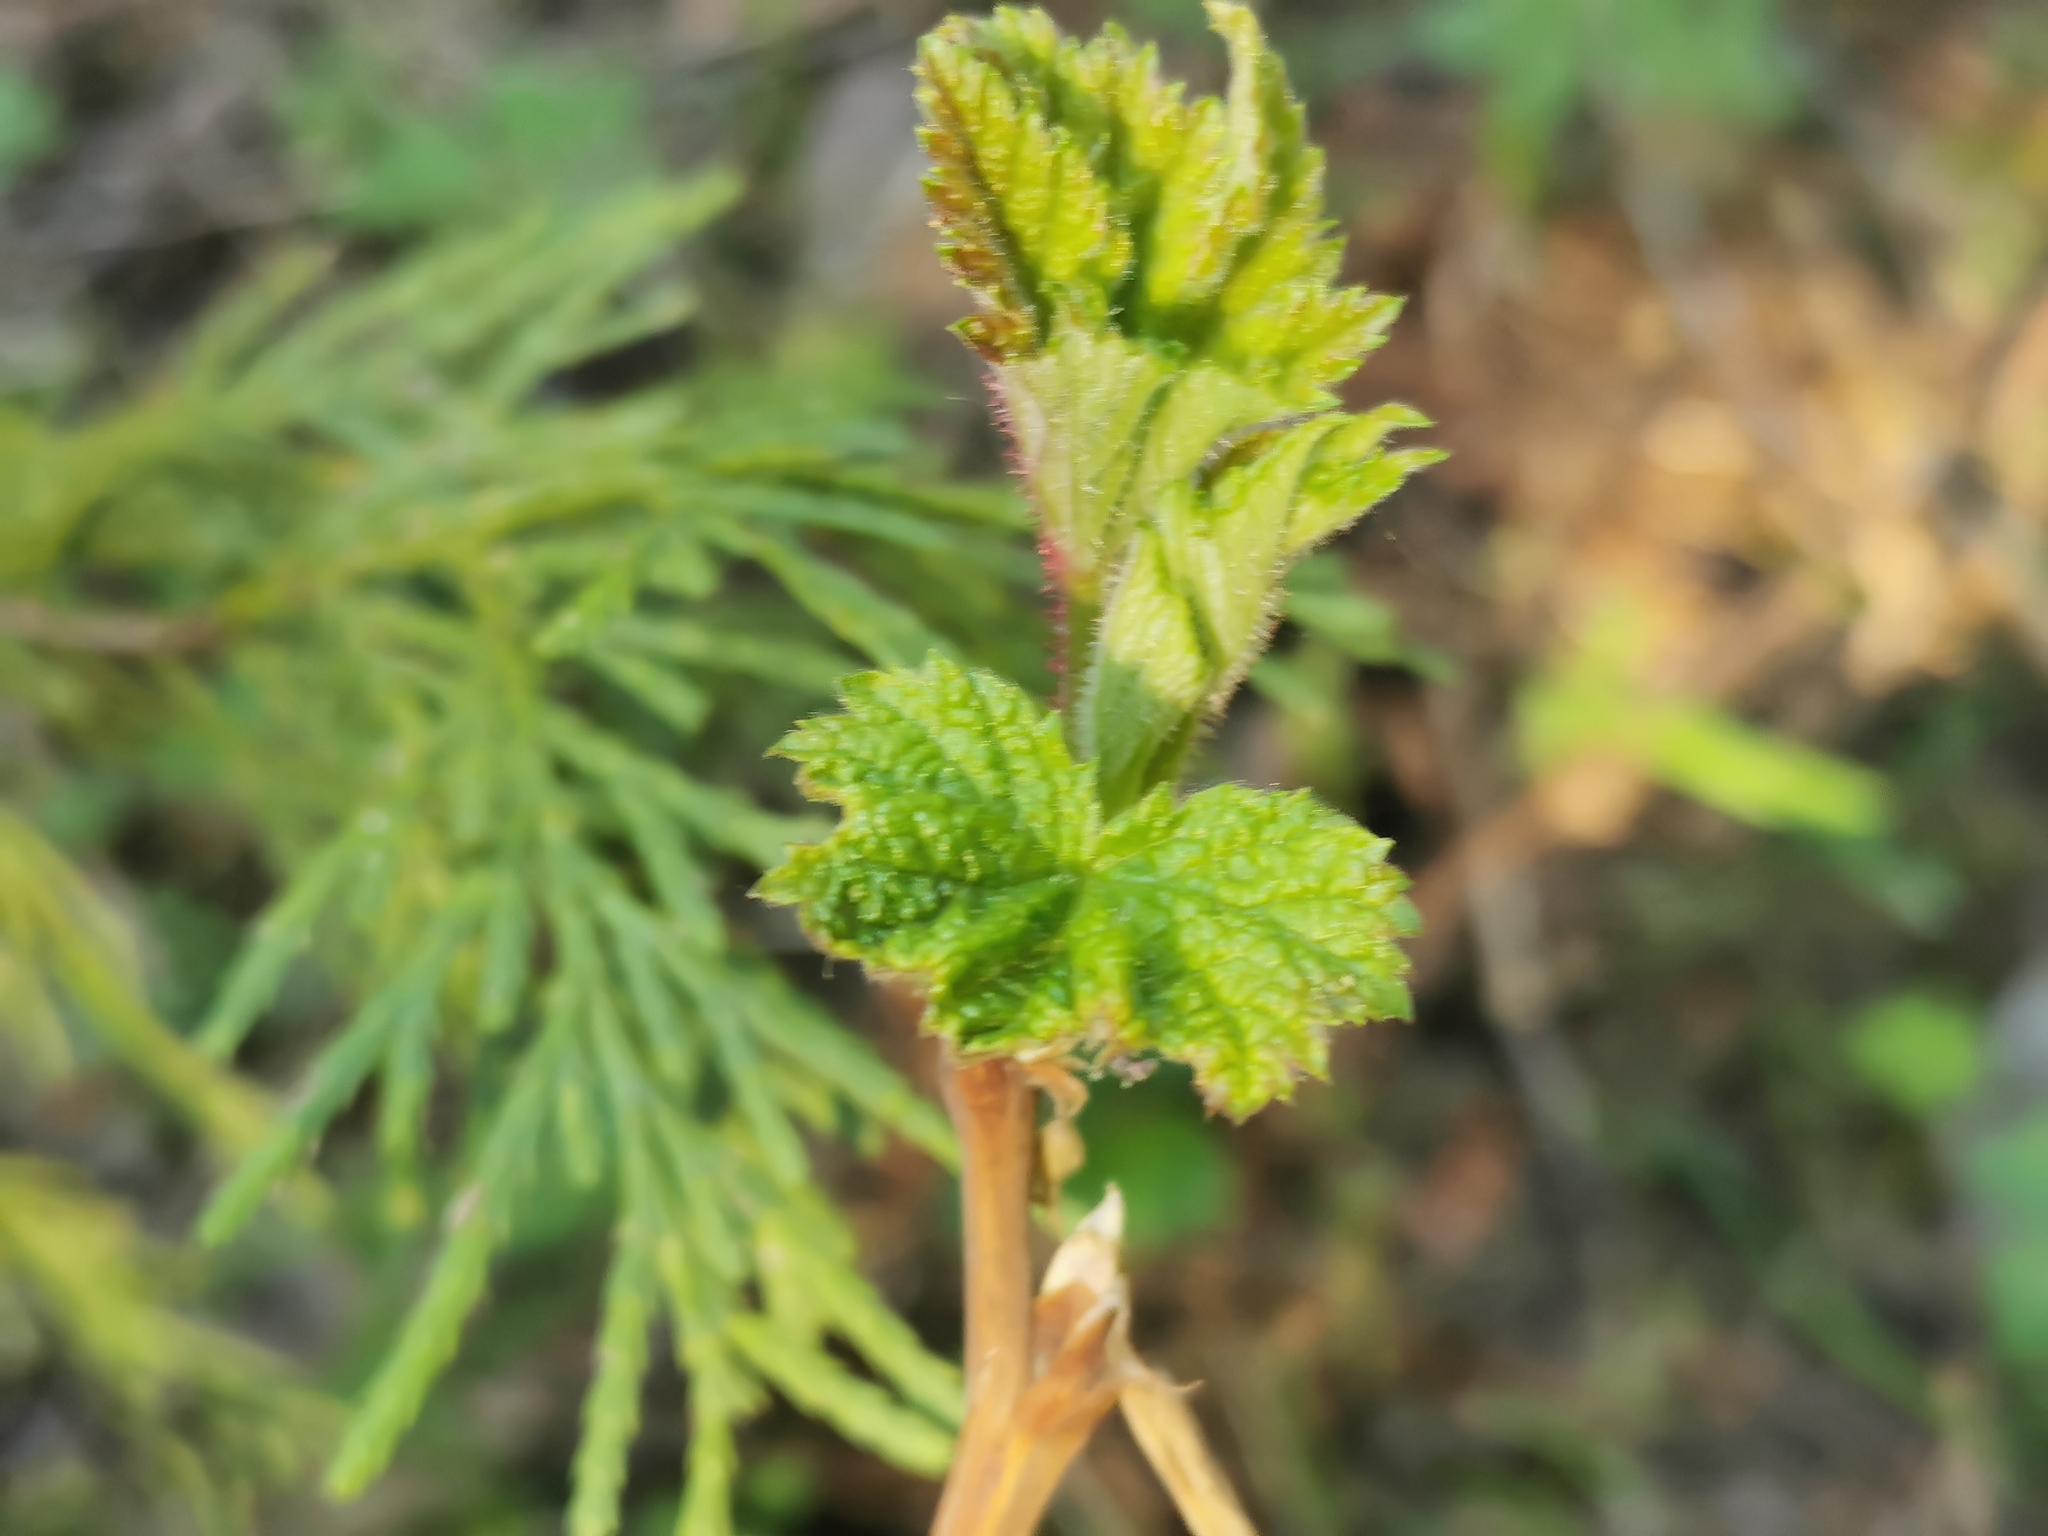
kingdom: Plantae
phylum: Tracheophyta
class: Magnoliopsida
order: Rosales
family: Rosaceae
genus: Rubus
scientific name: Rubus parviflorus
